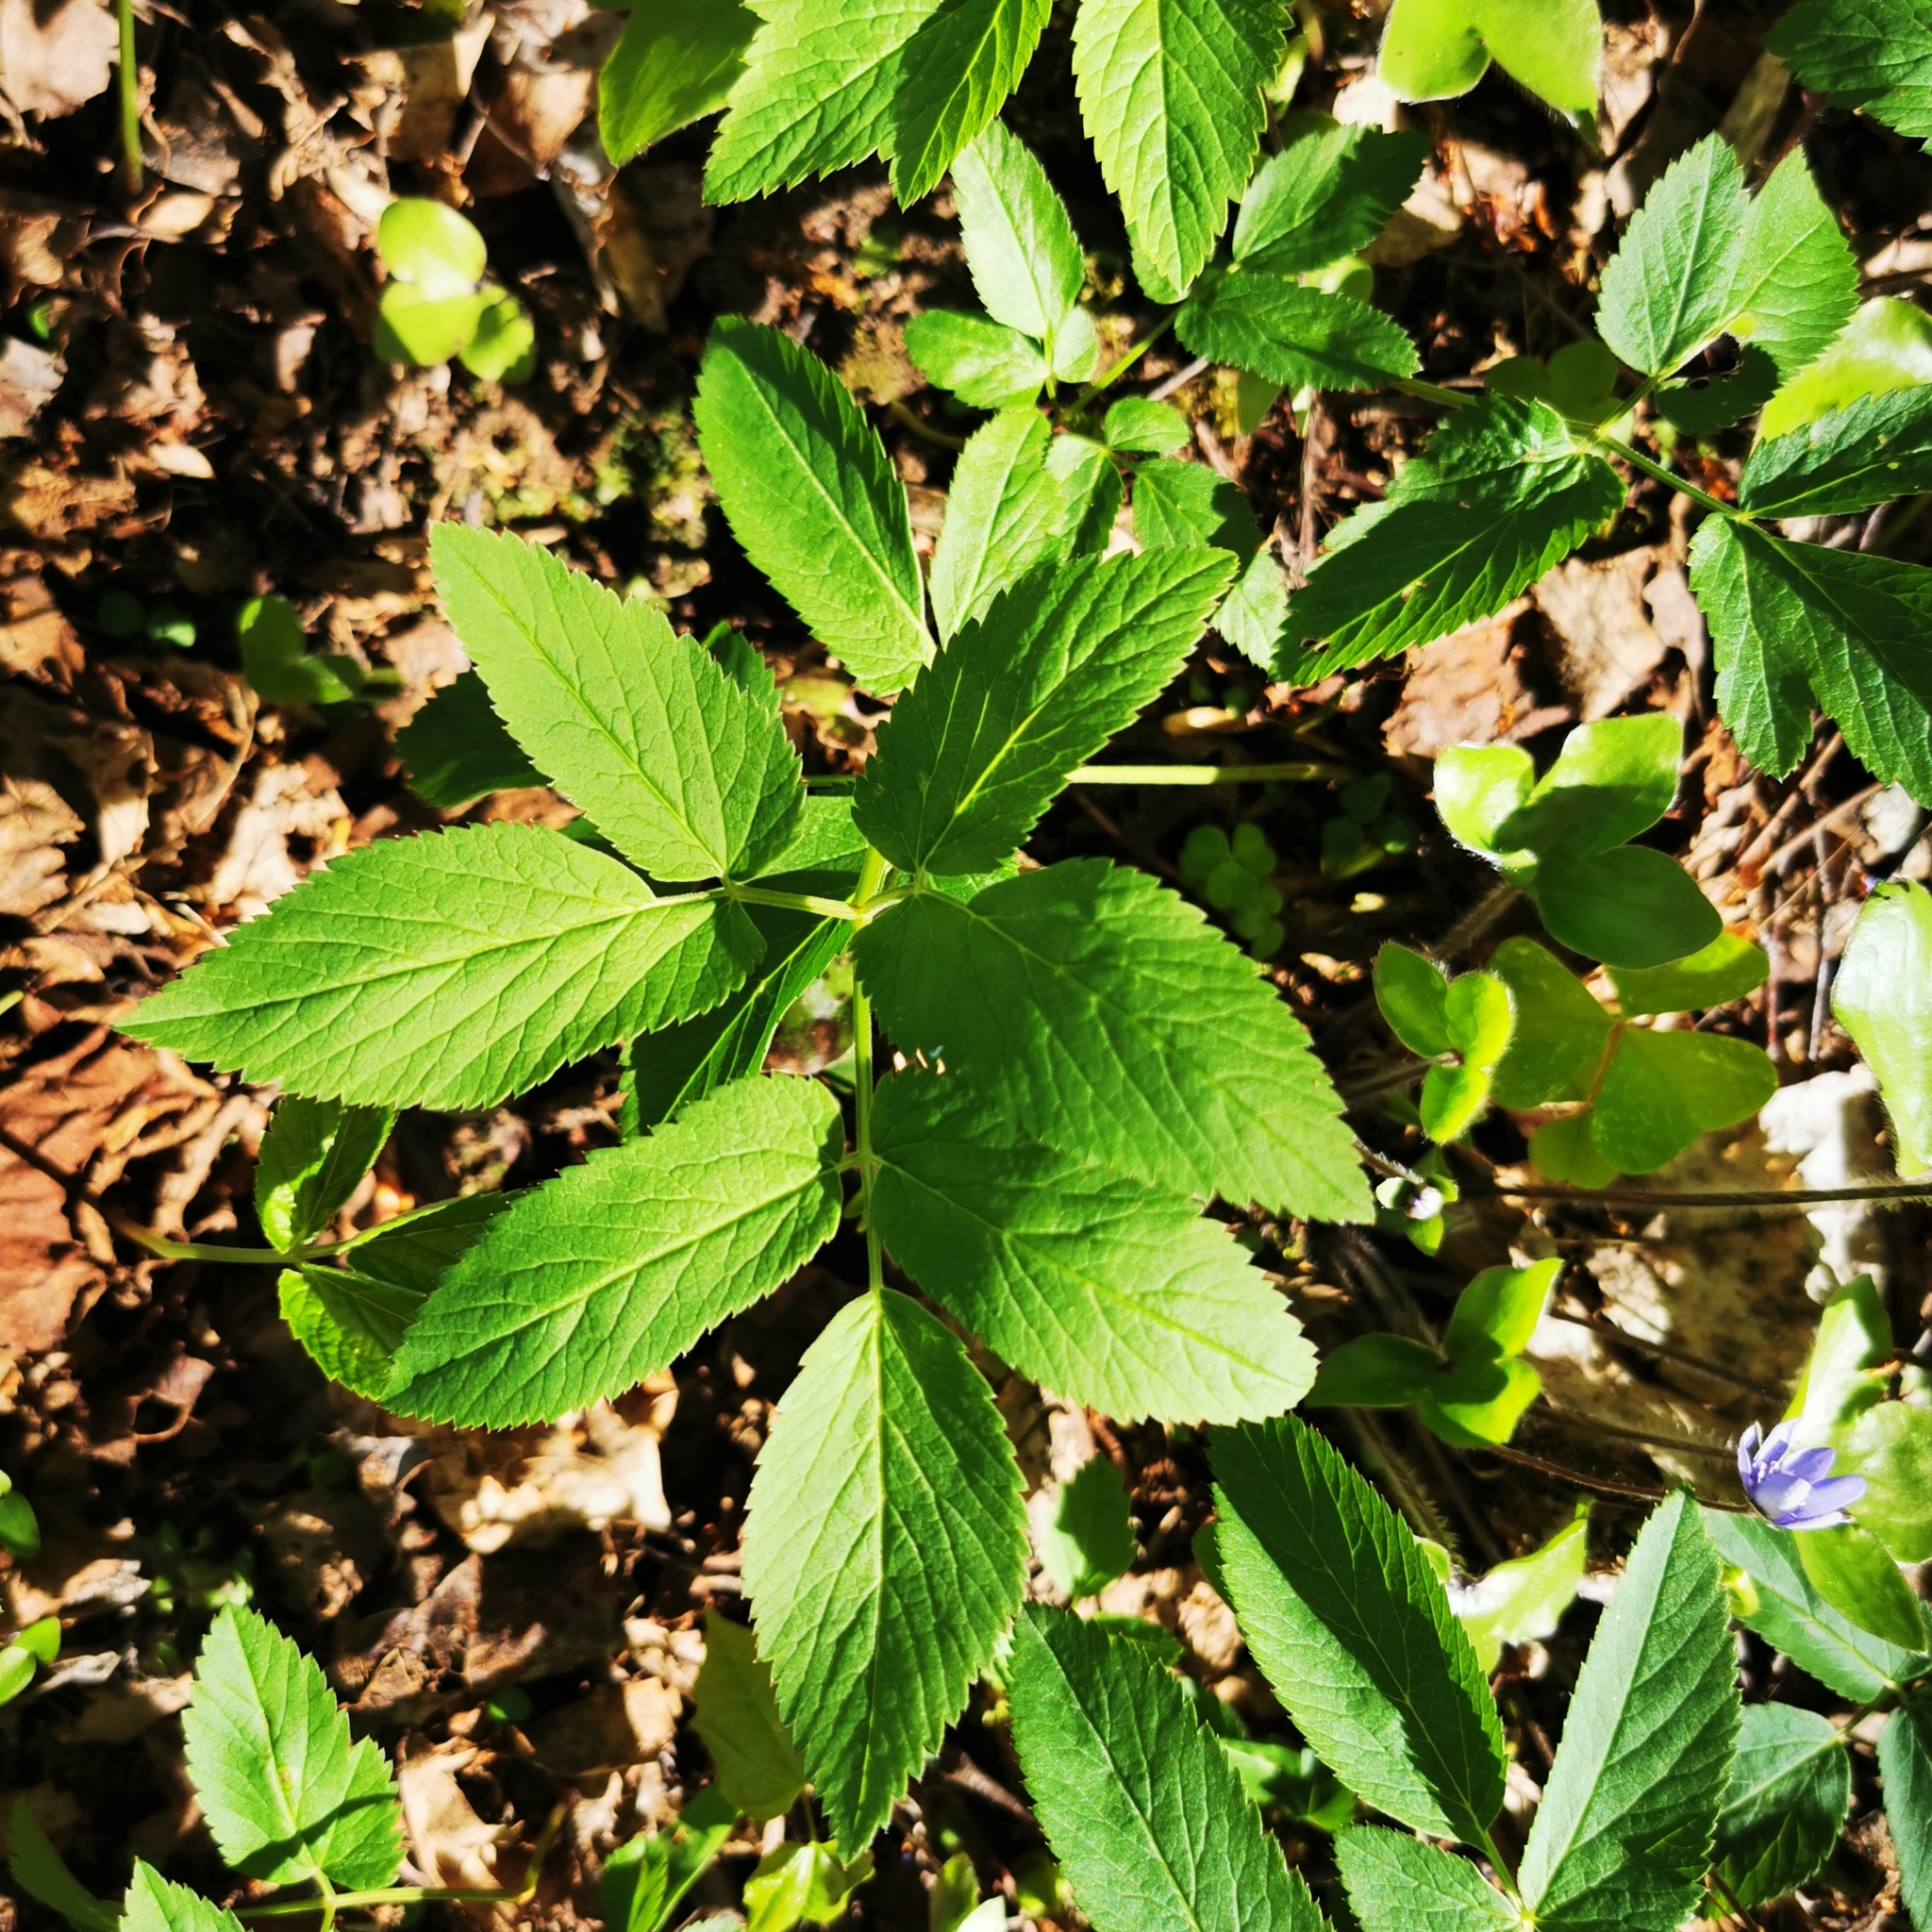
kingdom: Plantae
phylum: Tracheophyta
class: Magnoliopsida
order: Apiales
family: Apiaceae
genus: Aegopodium
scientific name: Aegopodium podagraria
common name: Ground-elder
